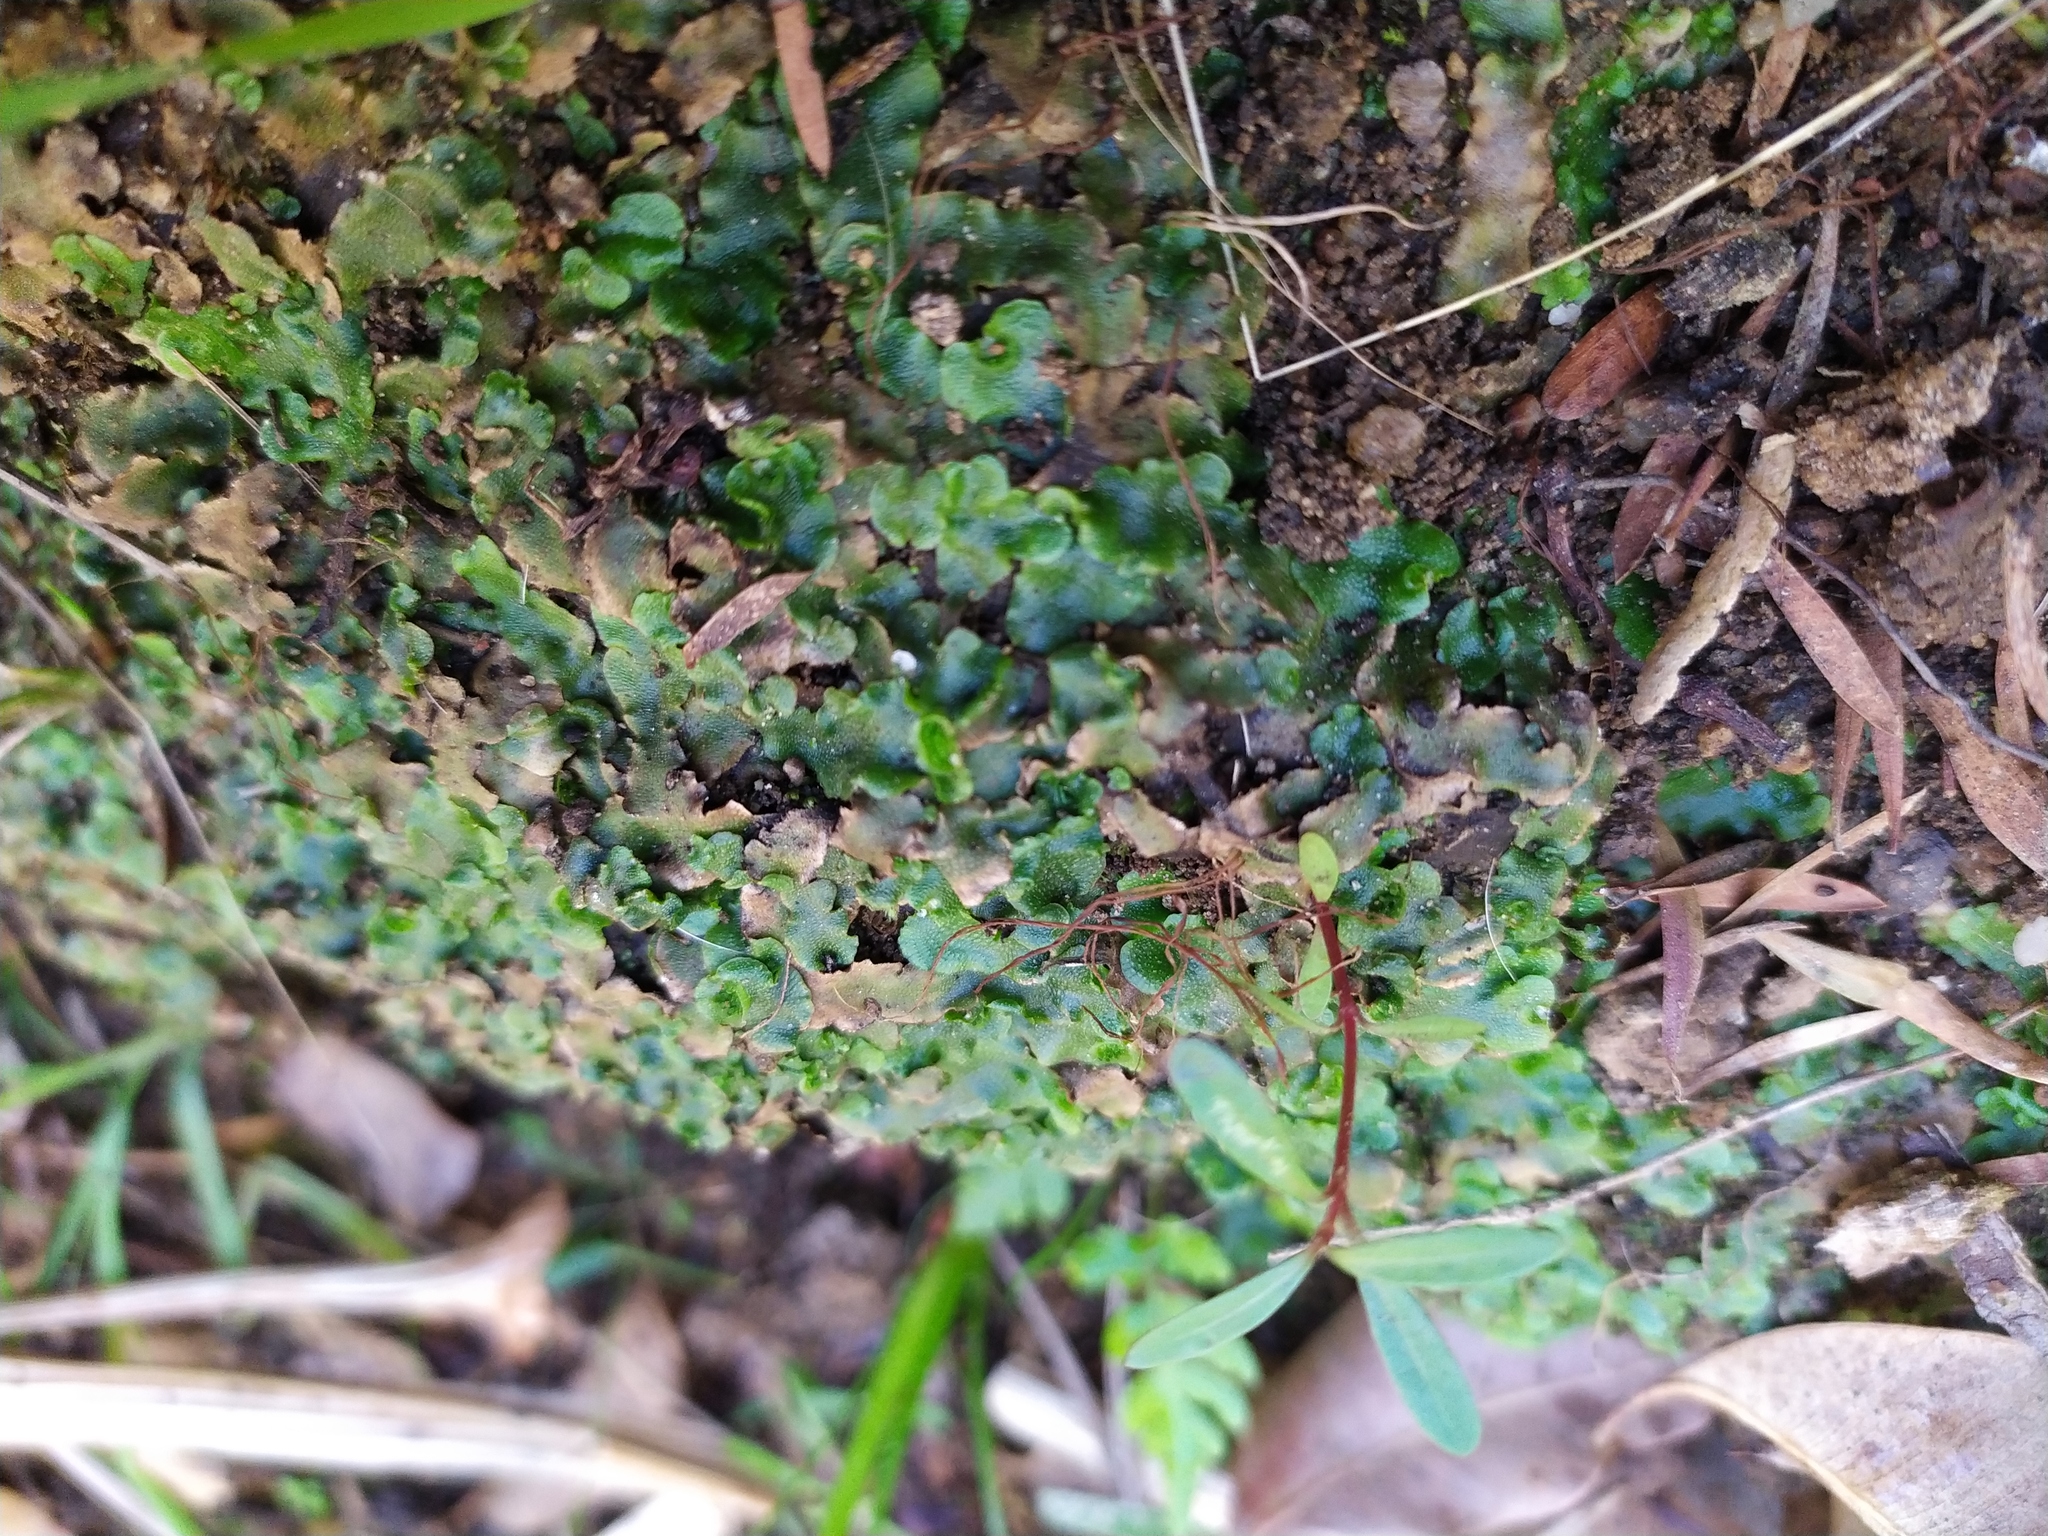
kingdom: Plantae
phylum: Marchantiophyta
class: Marchantiopsida
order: Lunulariales
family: Lunulariaceae
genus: Lunularia
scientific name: Lunularia cruciata
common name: Crescent-cup liverwort
